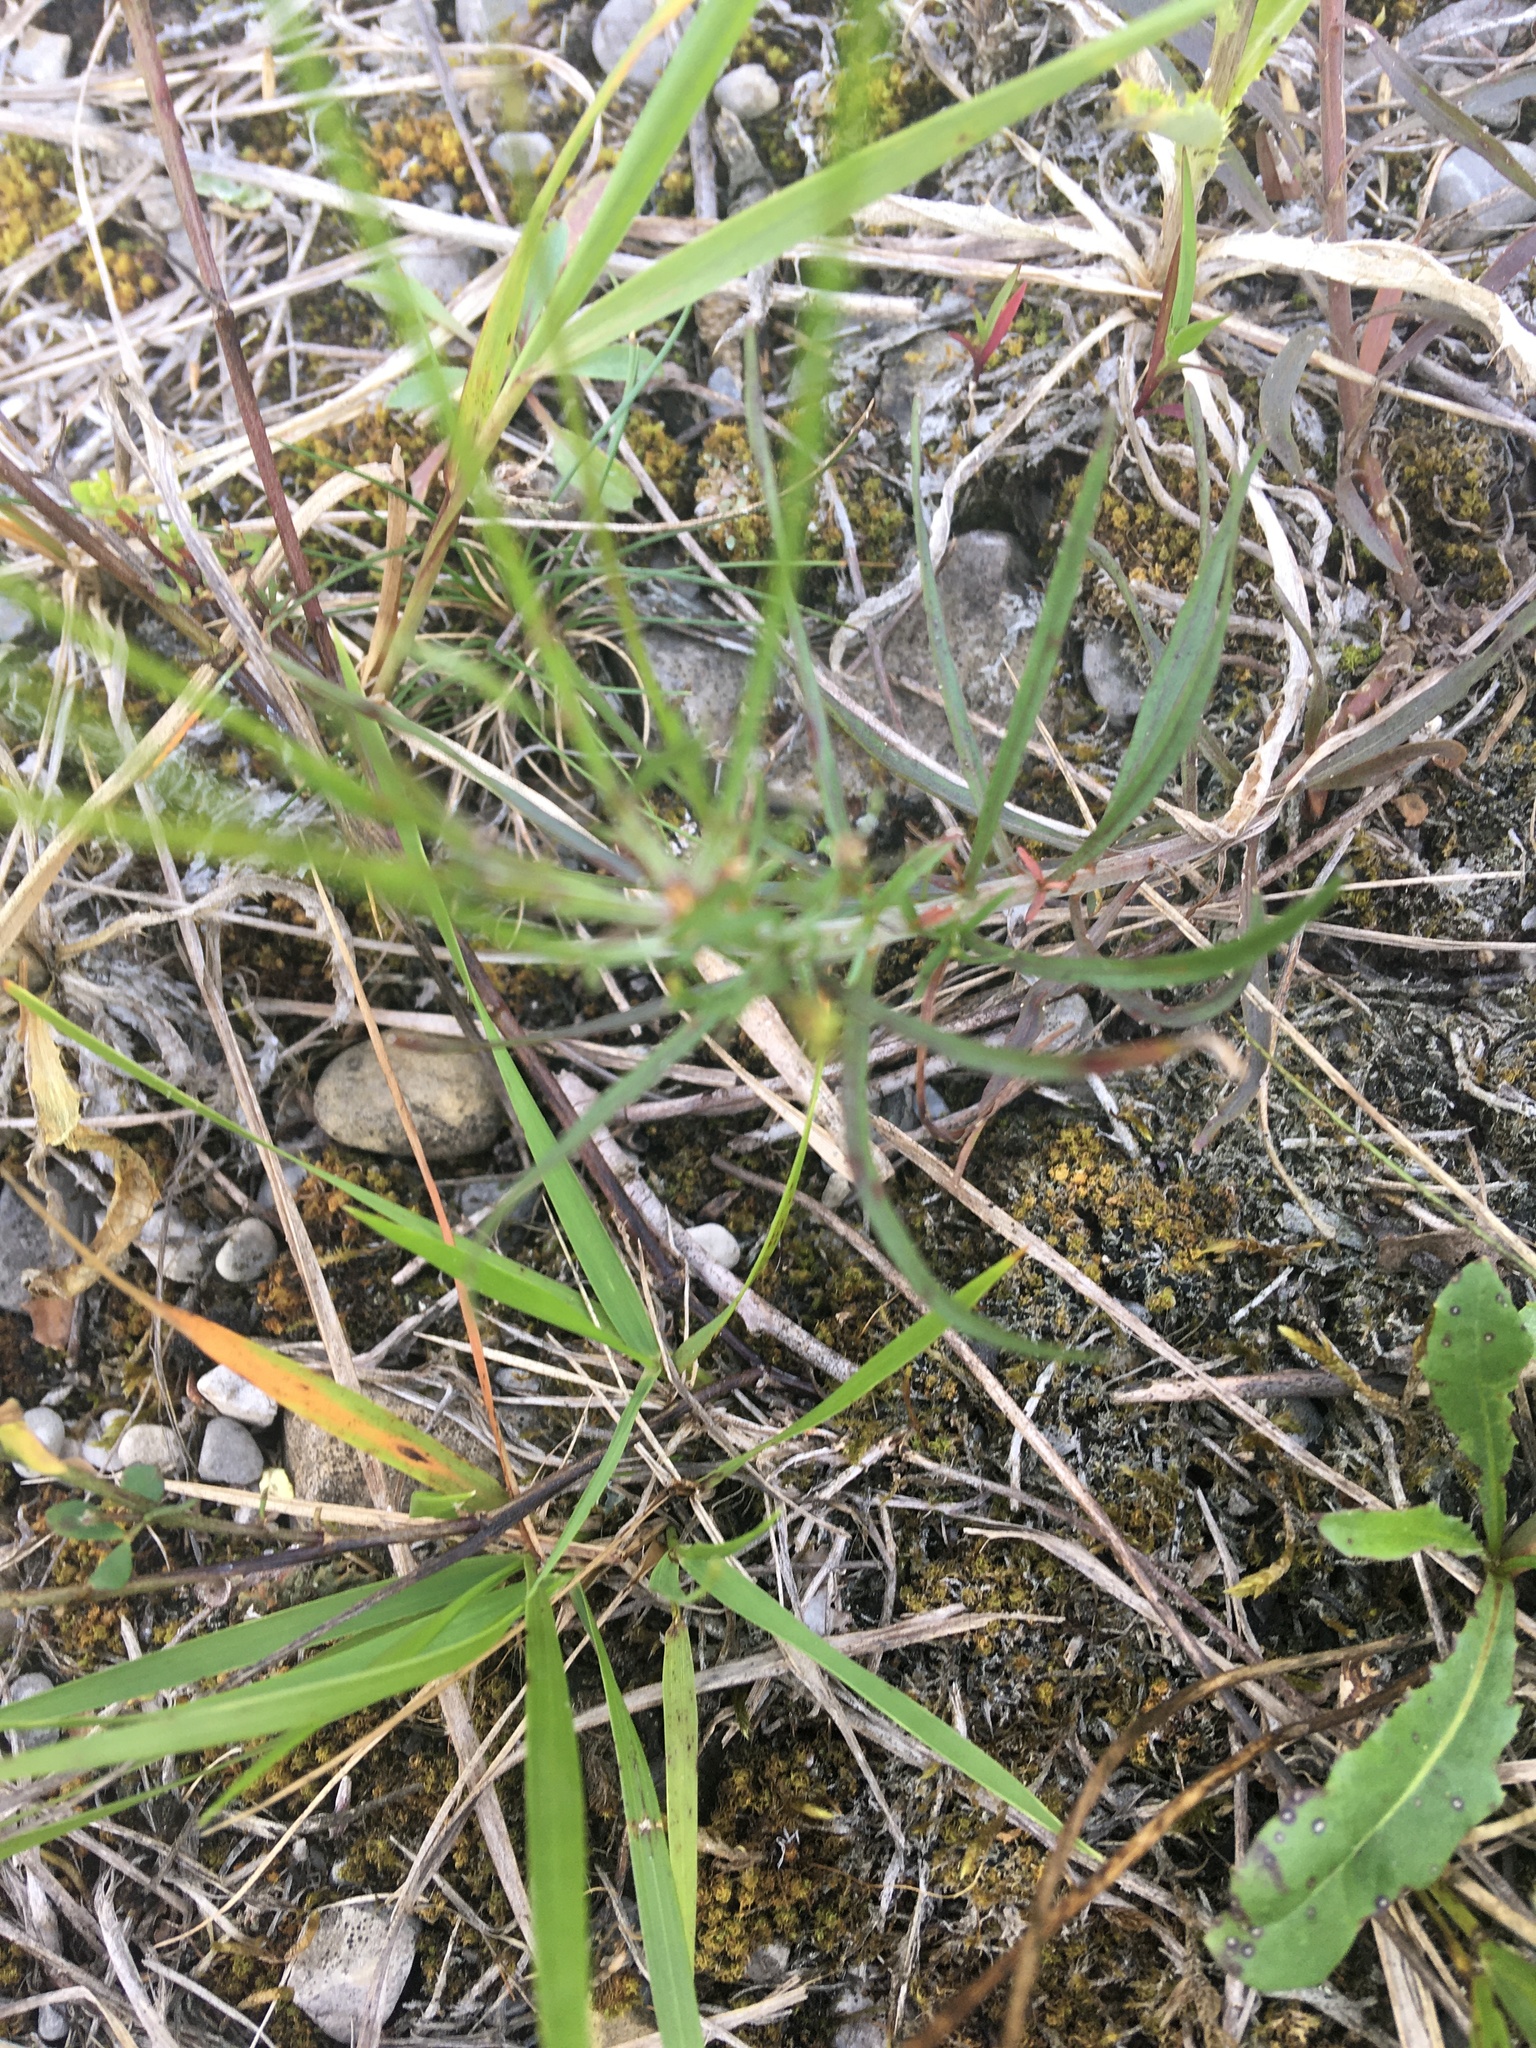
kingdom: Plantae
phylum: Tracheophyta
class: Magnoliopsida
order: Asterales
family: Campanulaceae
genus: Campanula
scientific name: Campanula rotundifolia
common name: Harebell
